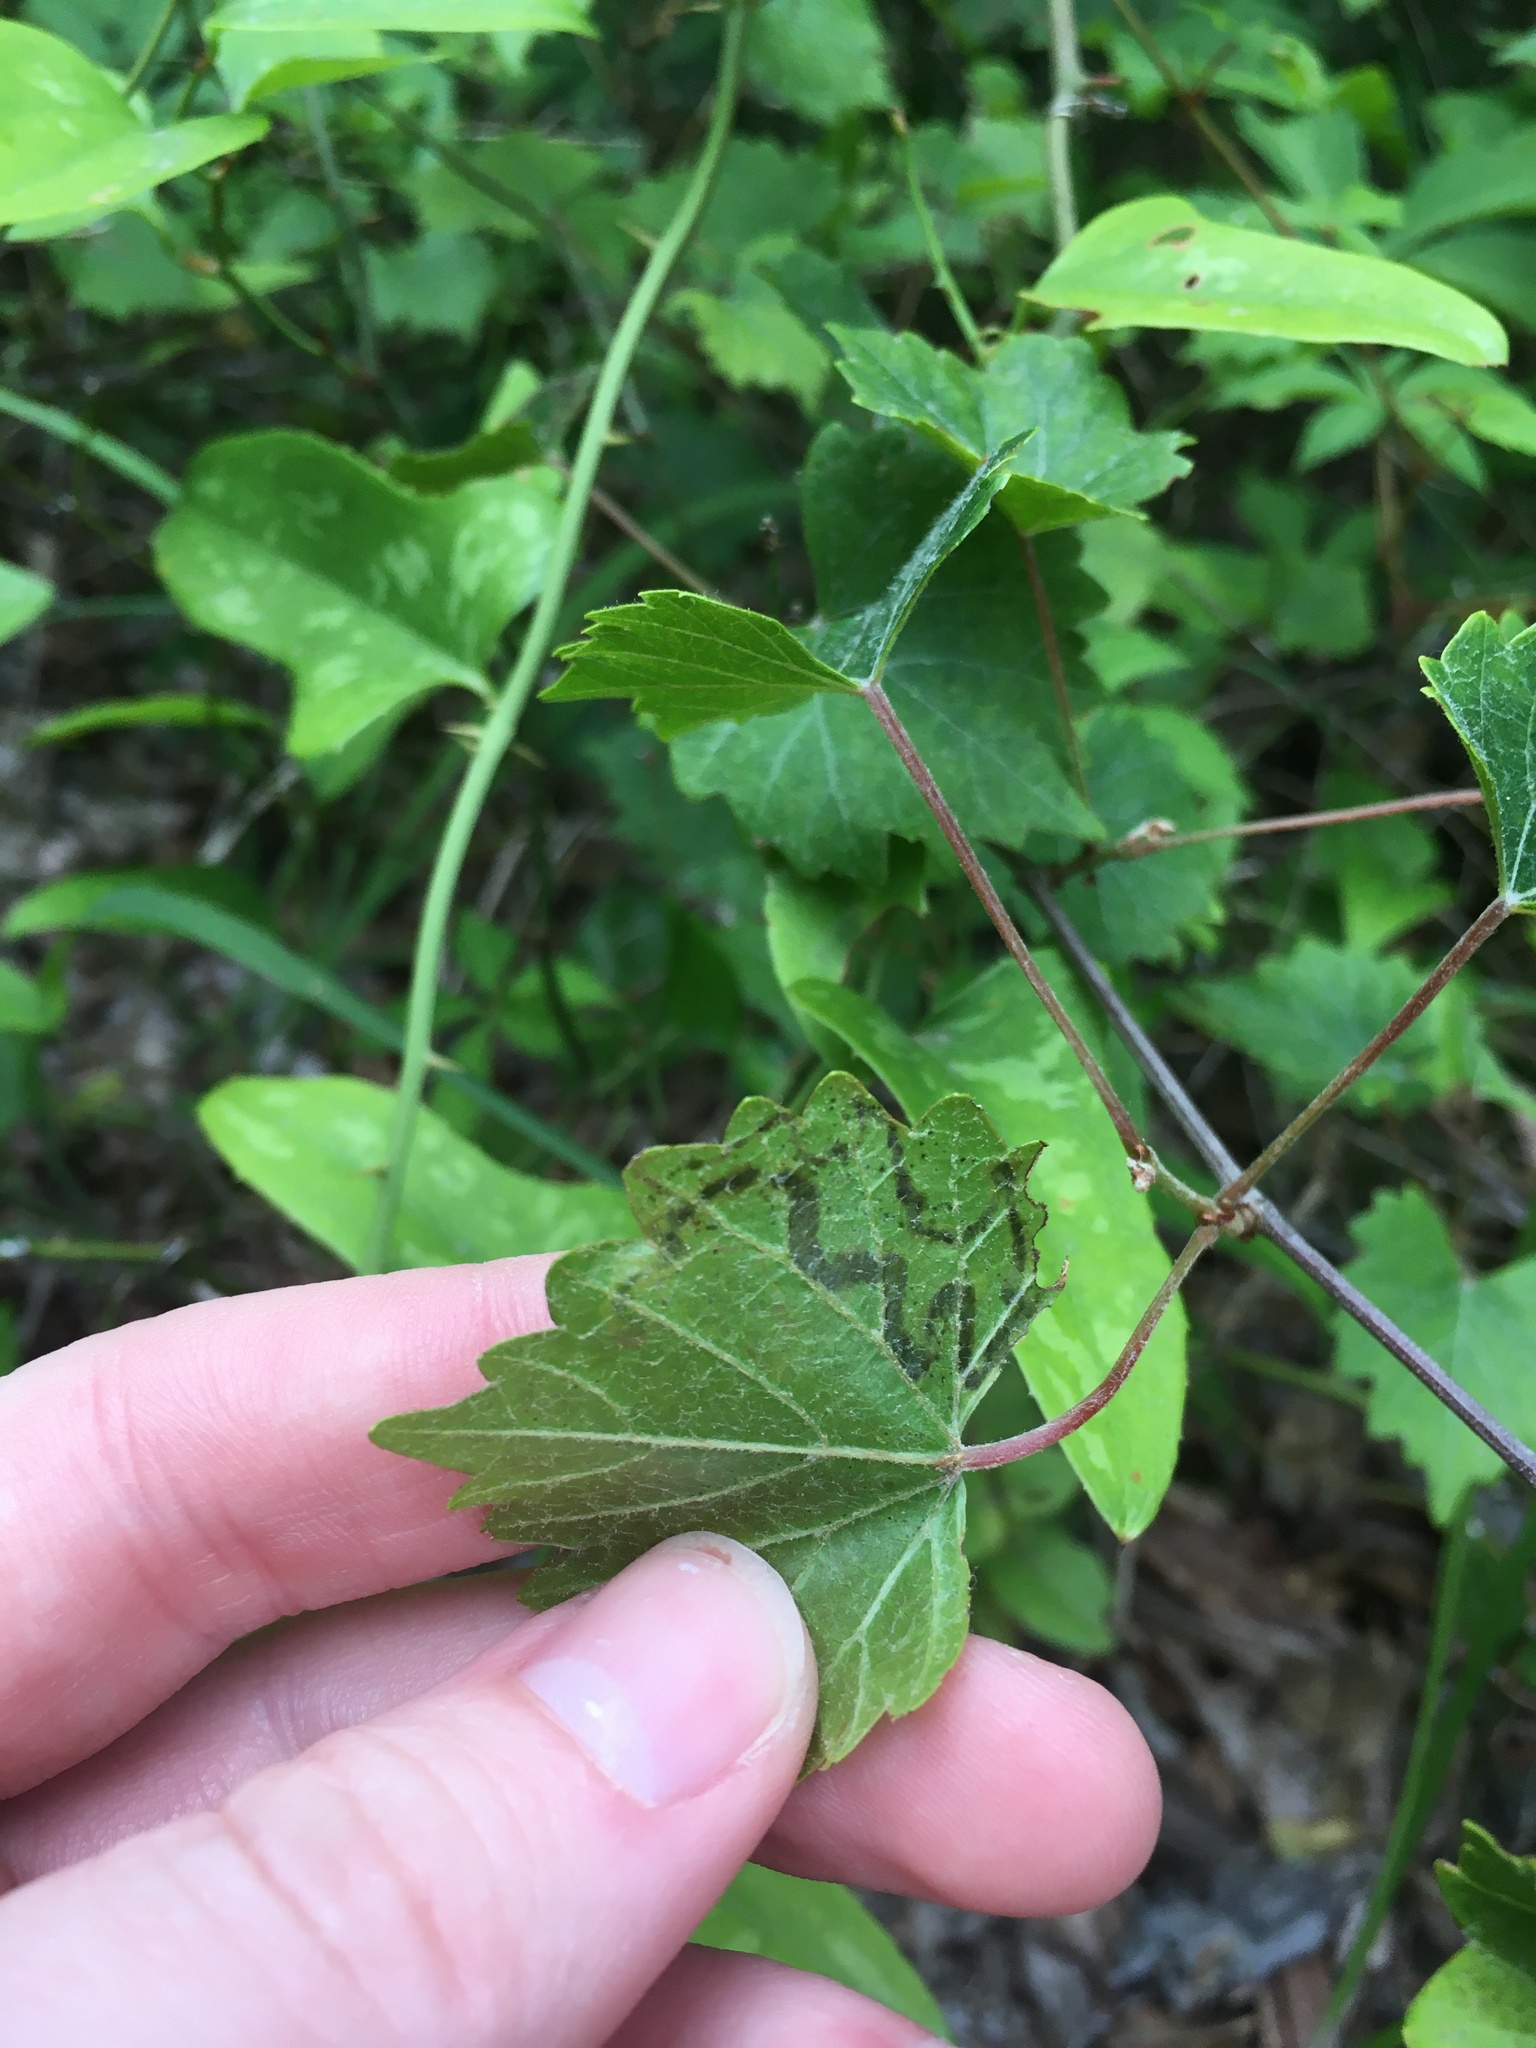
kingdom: Animalia
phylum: Arthropoda
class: Insecta
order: Lepidoptera
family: Gracillariidae
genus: Phyllocnistis
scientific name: Phyllocnistis vitifoliella
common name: Grape leaf-miner moth
